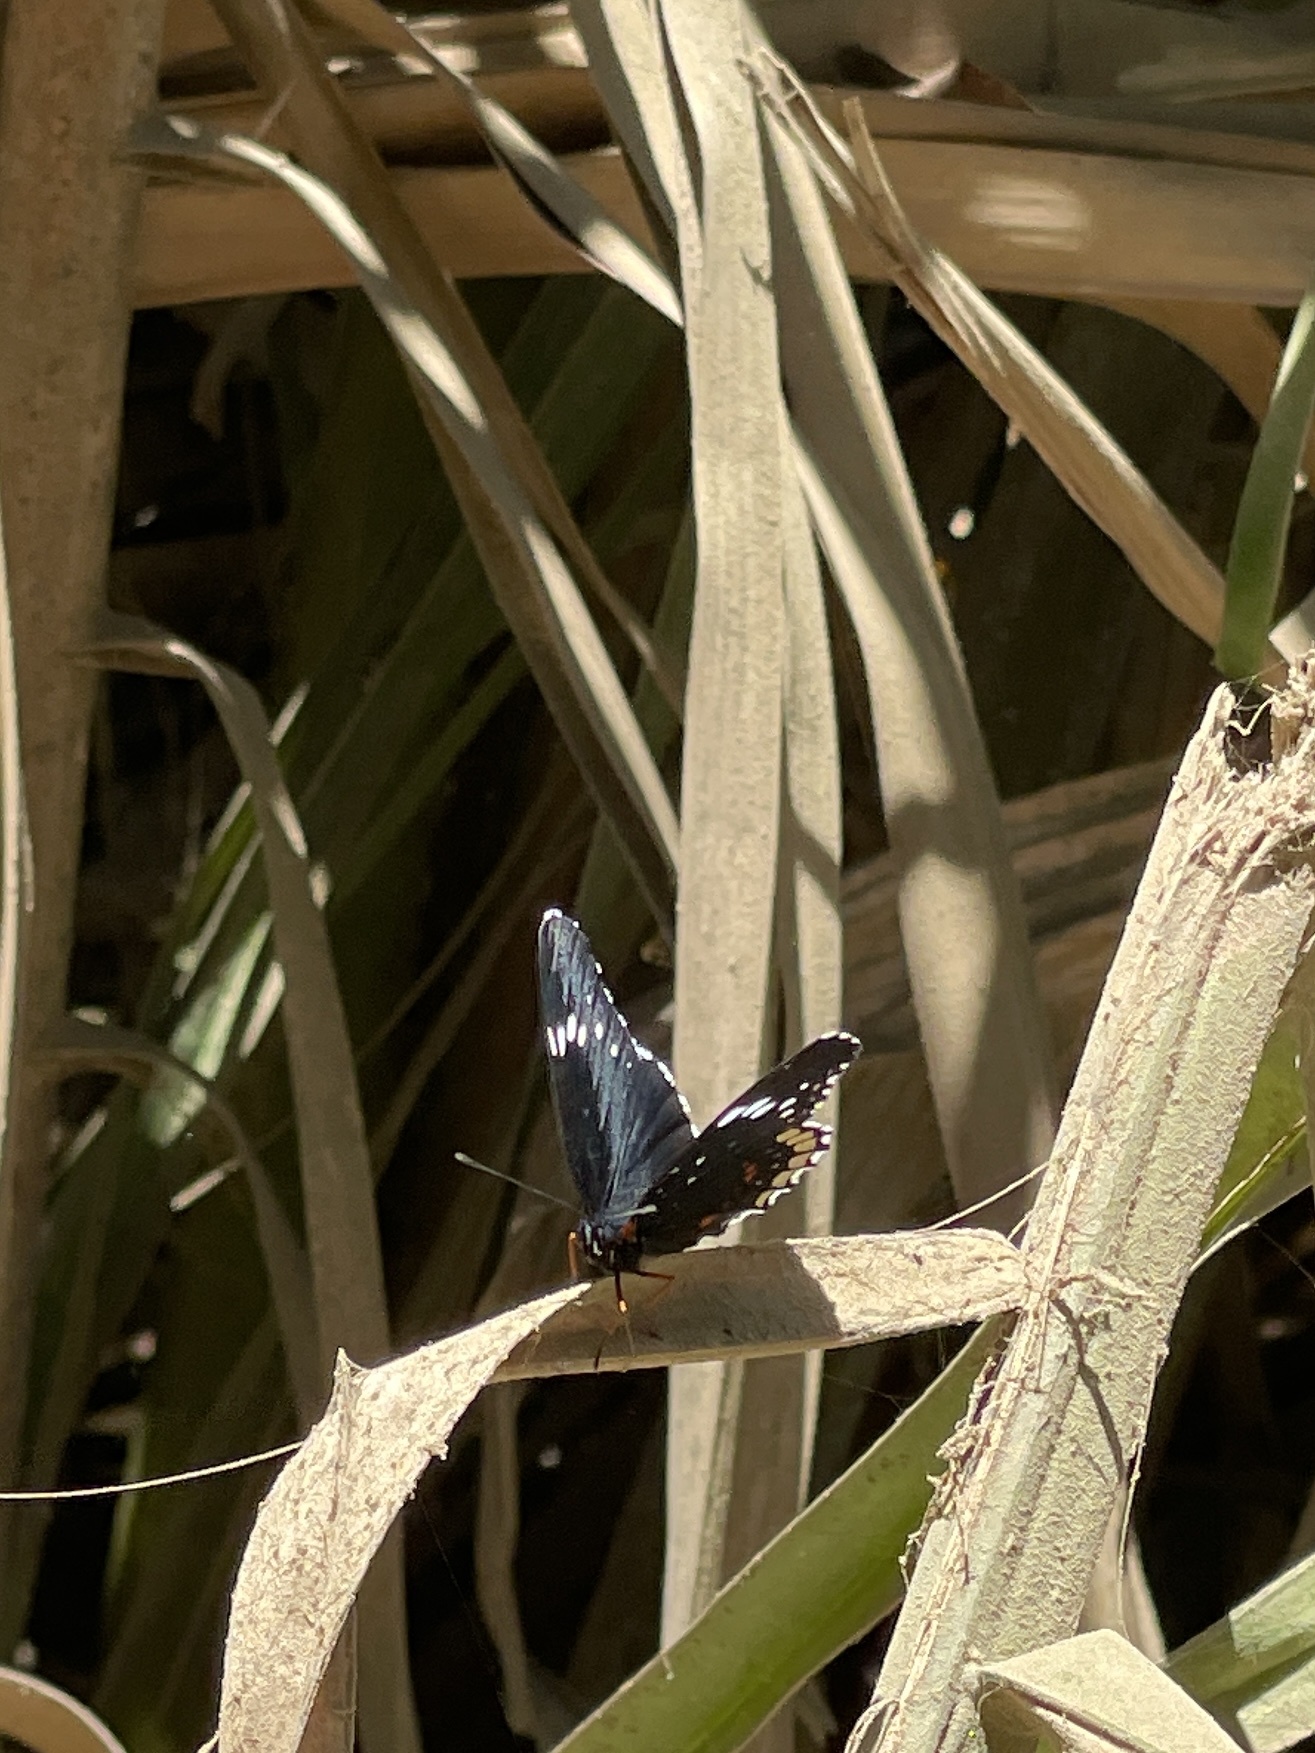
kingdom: Animalia
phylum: Arthropoda
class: Insecta
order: Lepidoptera
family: Nymphalidae
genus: Chlosyne
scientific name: Chlosyne hippodrome
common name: Simple patch
